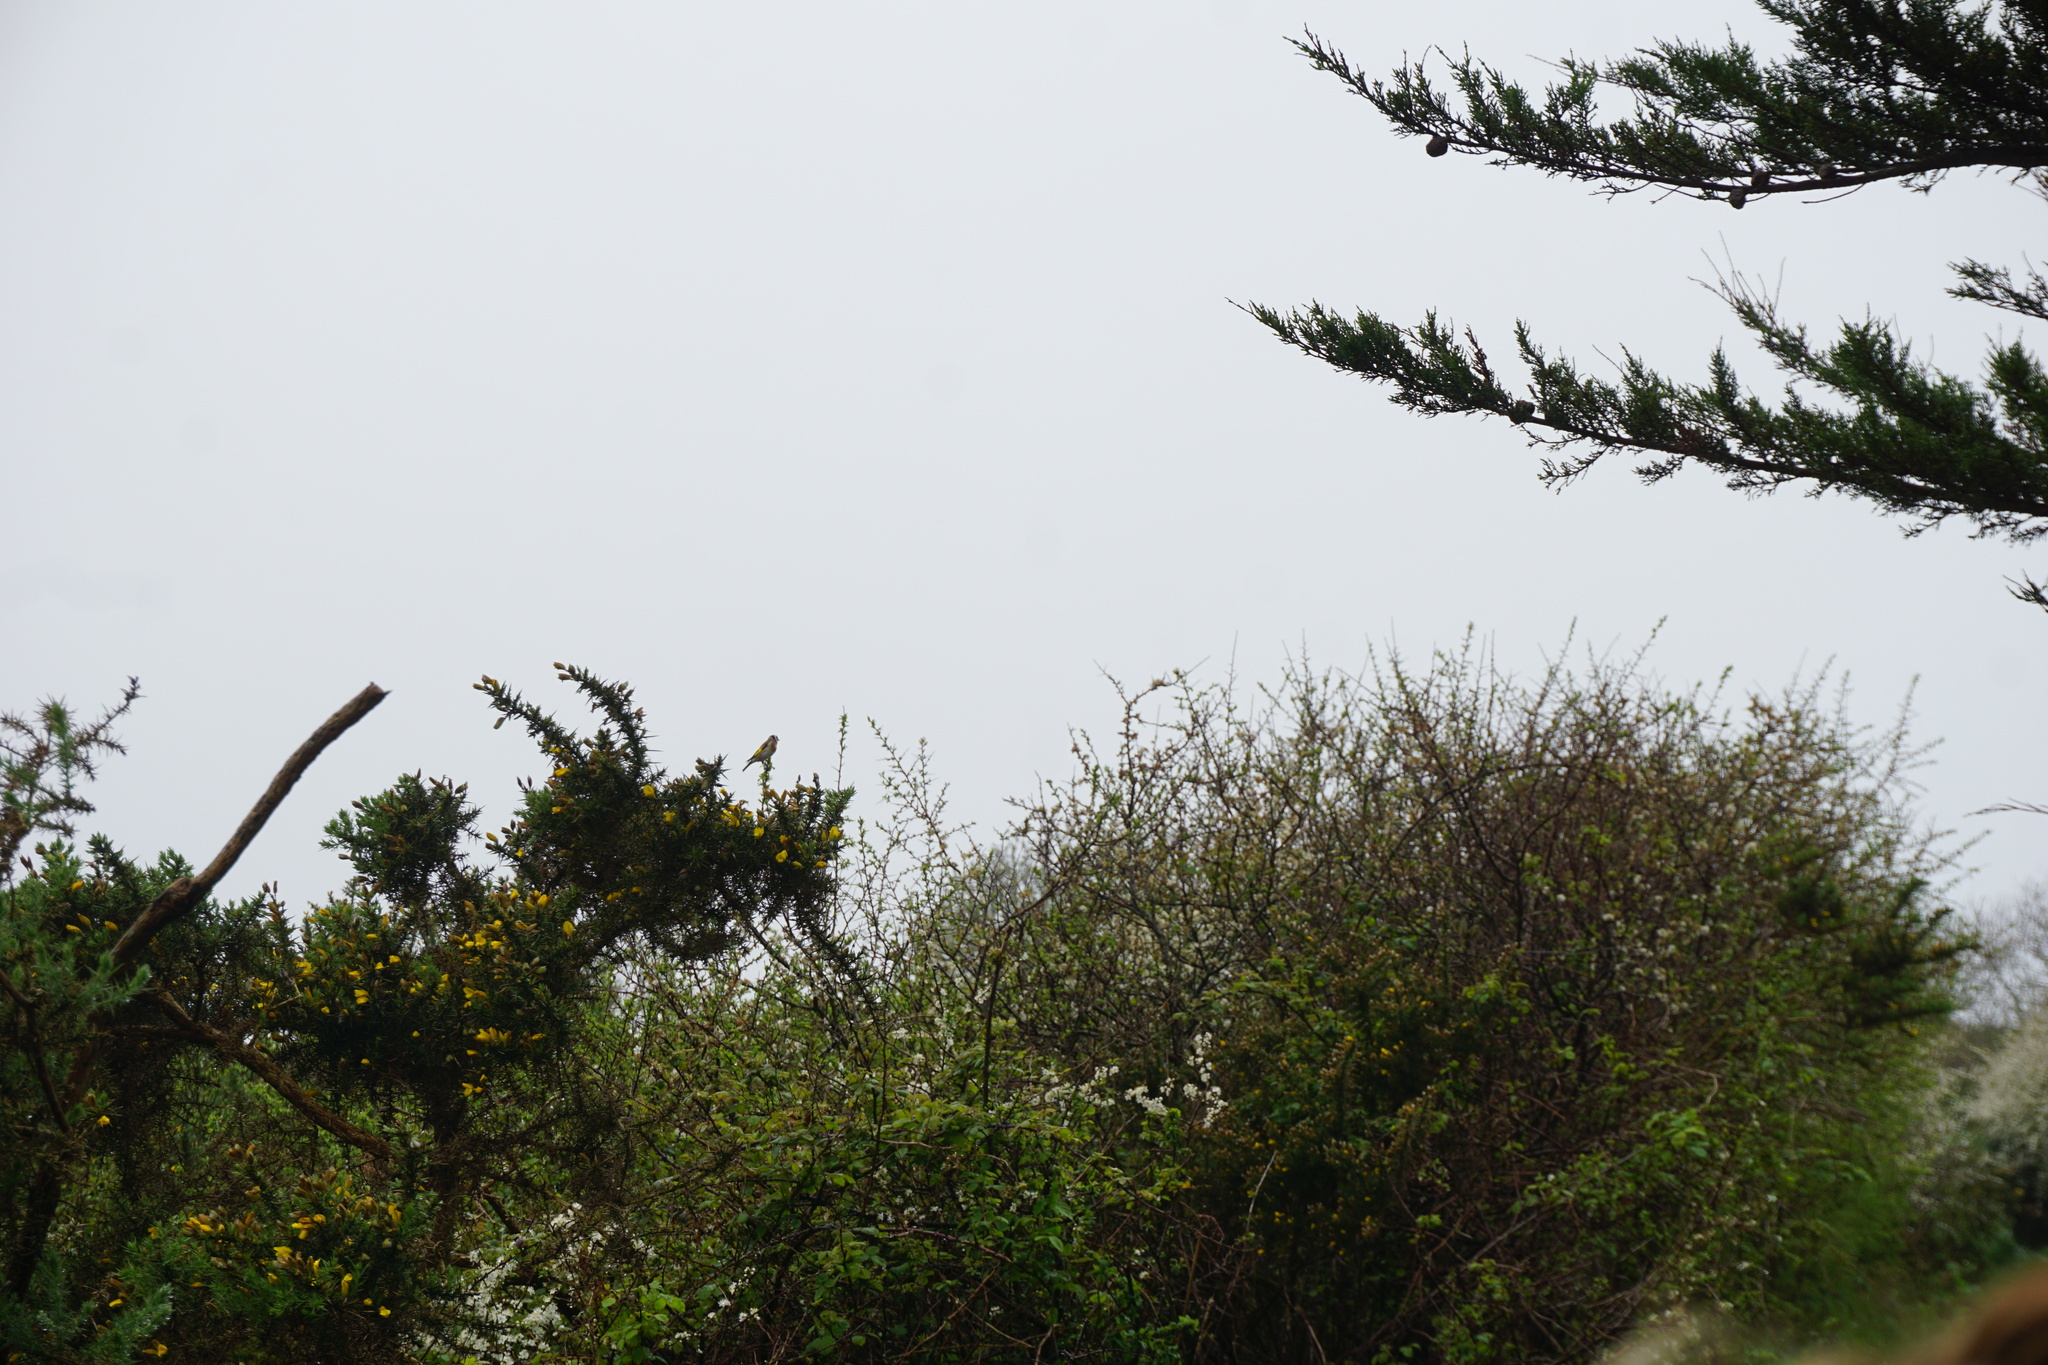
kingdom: Animalia
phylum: Chordata
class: Aves
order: Passeriformes
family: Fringillidae
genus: Carduelis
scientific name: Carduelis carduelis
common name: European goldfinch
